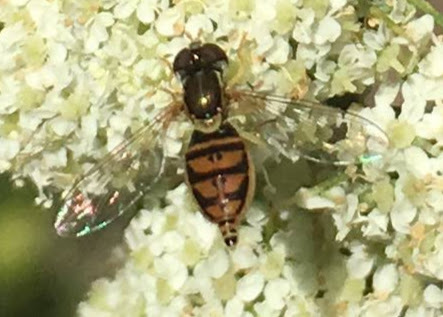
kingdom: Animalia
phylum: Arthropoda
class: Insecta
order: Diptera
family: Syrphidae
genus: Toxomerus
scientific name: Toxomerus marginatus
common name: Syrphid fly
